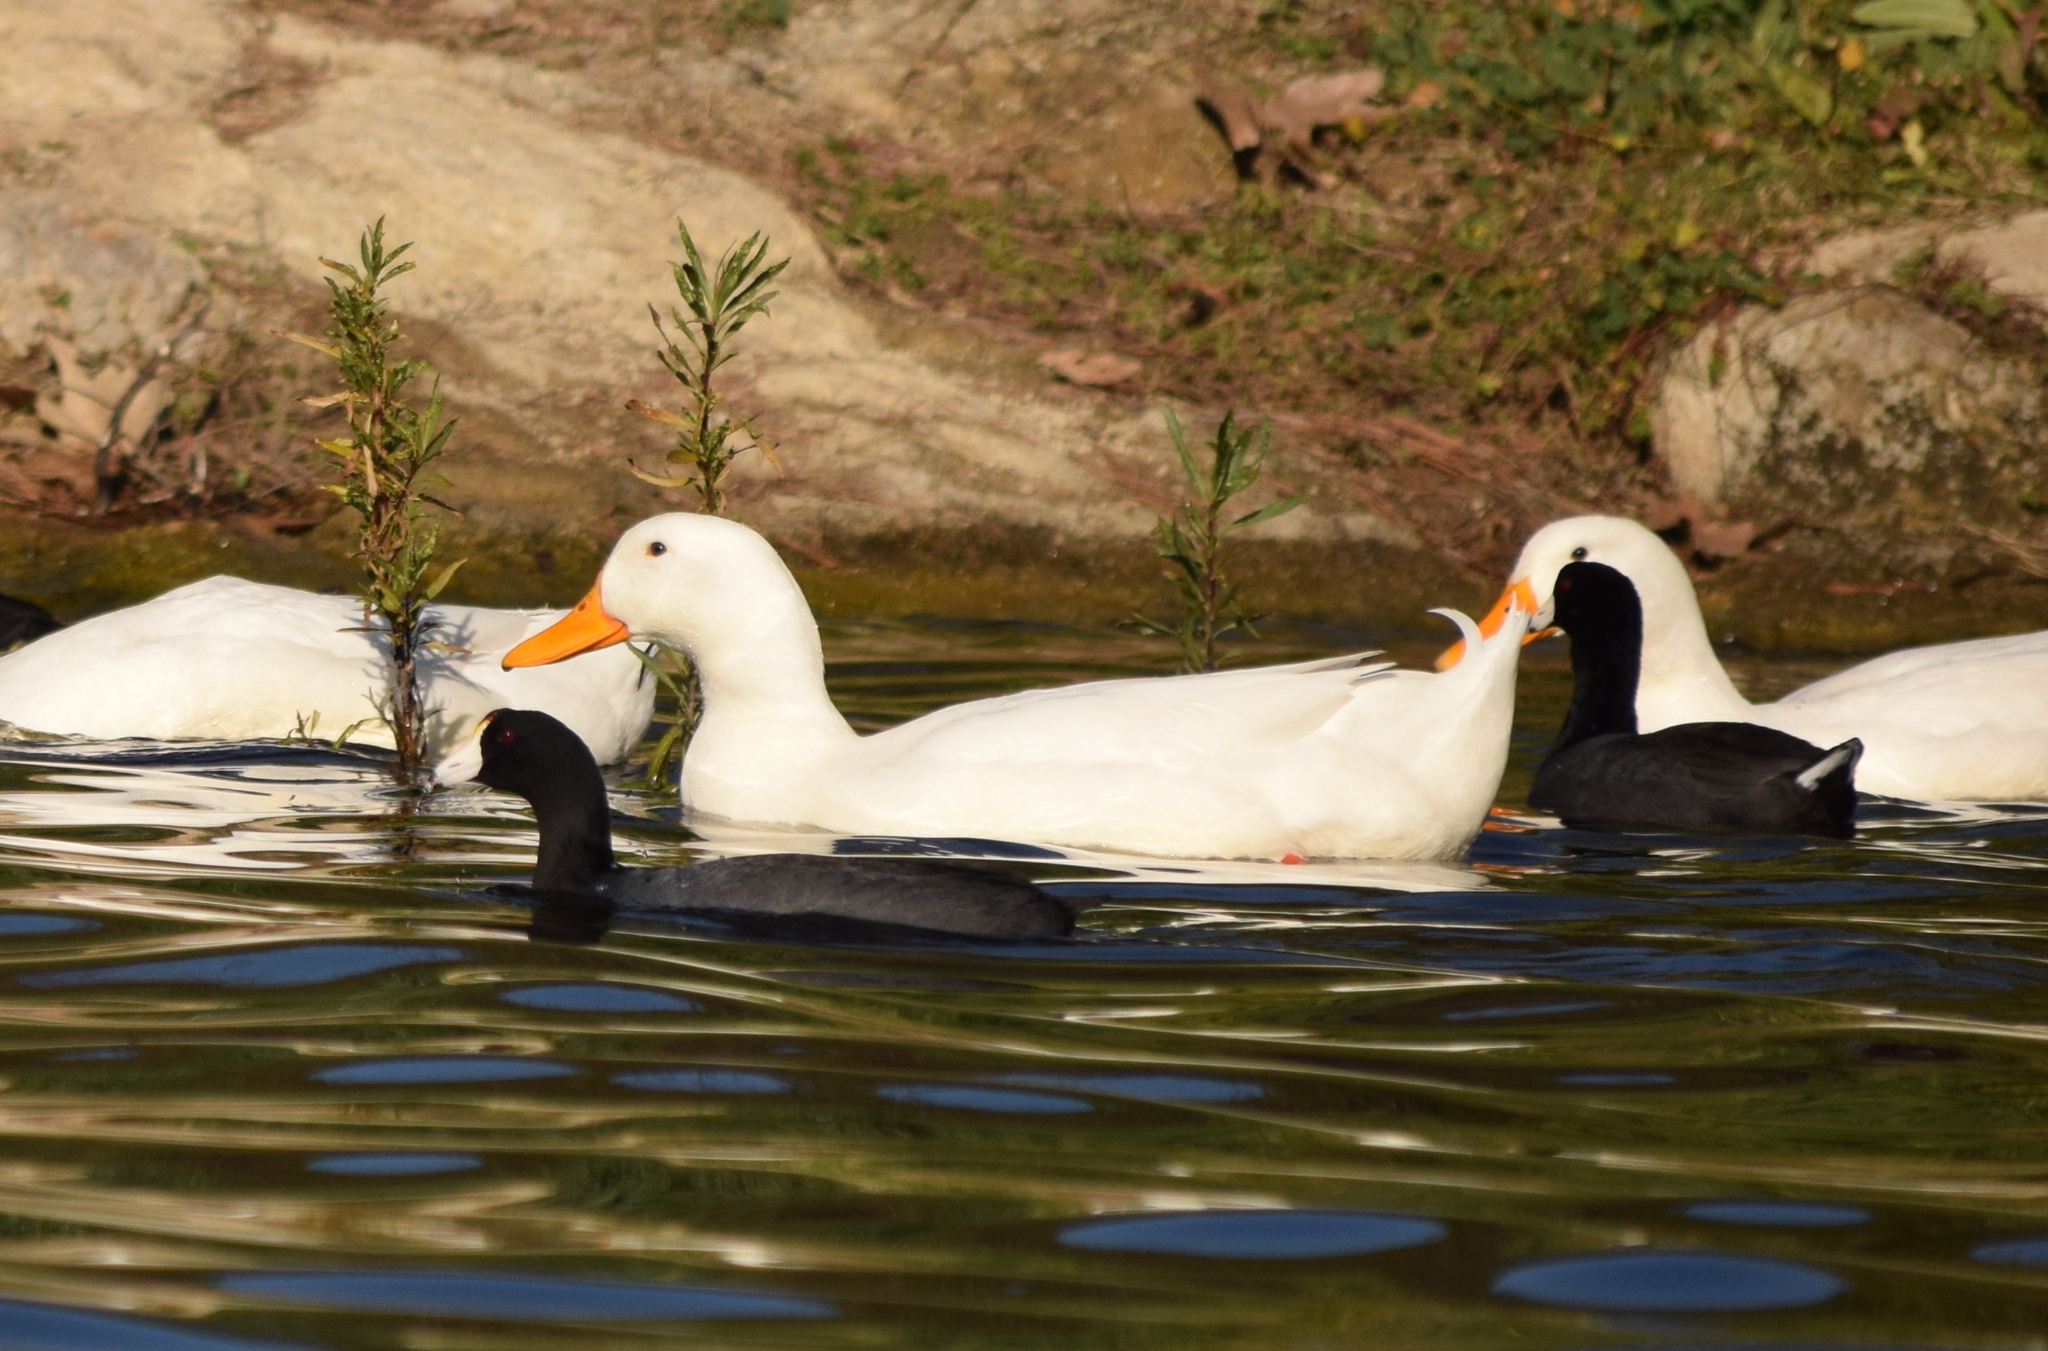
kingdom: Animalia
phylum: Chordata
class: Aves
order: Anseriformes
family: Anatidae
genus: Anas
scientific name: Anas platyrhynchos
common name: Mallard
